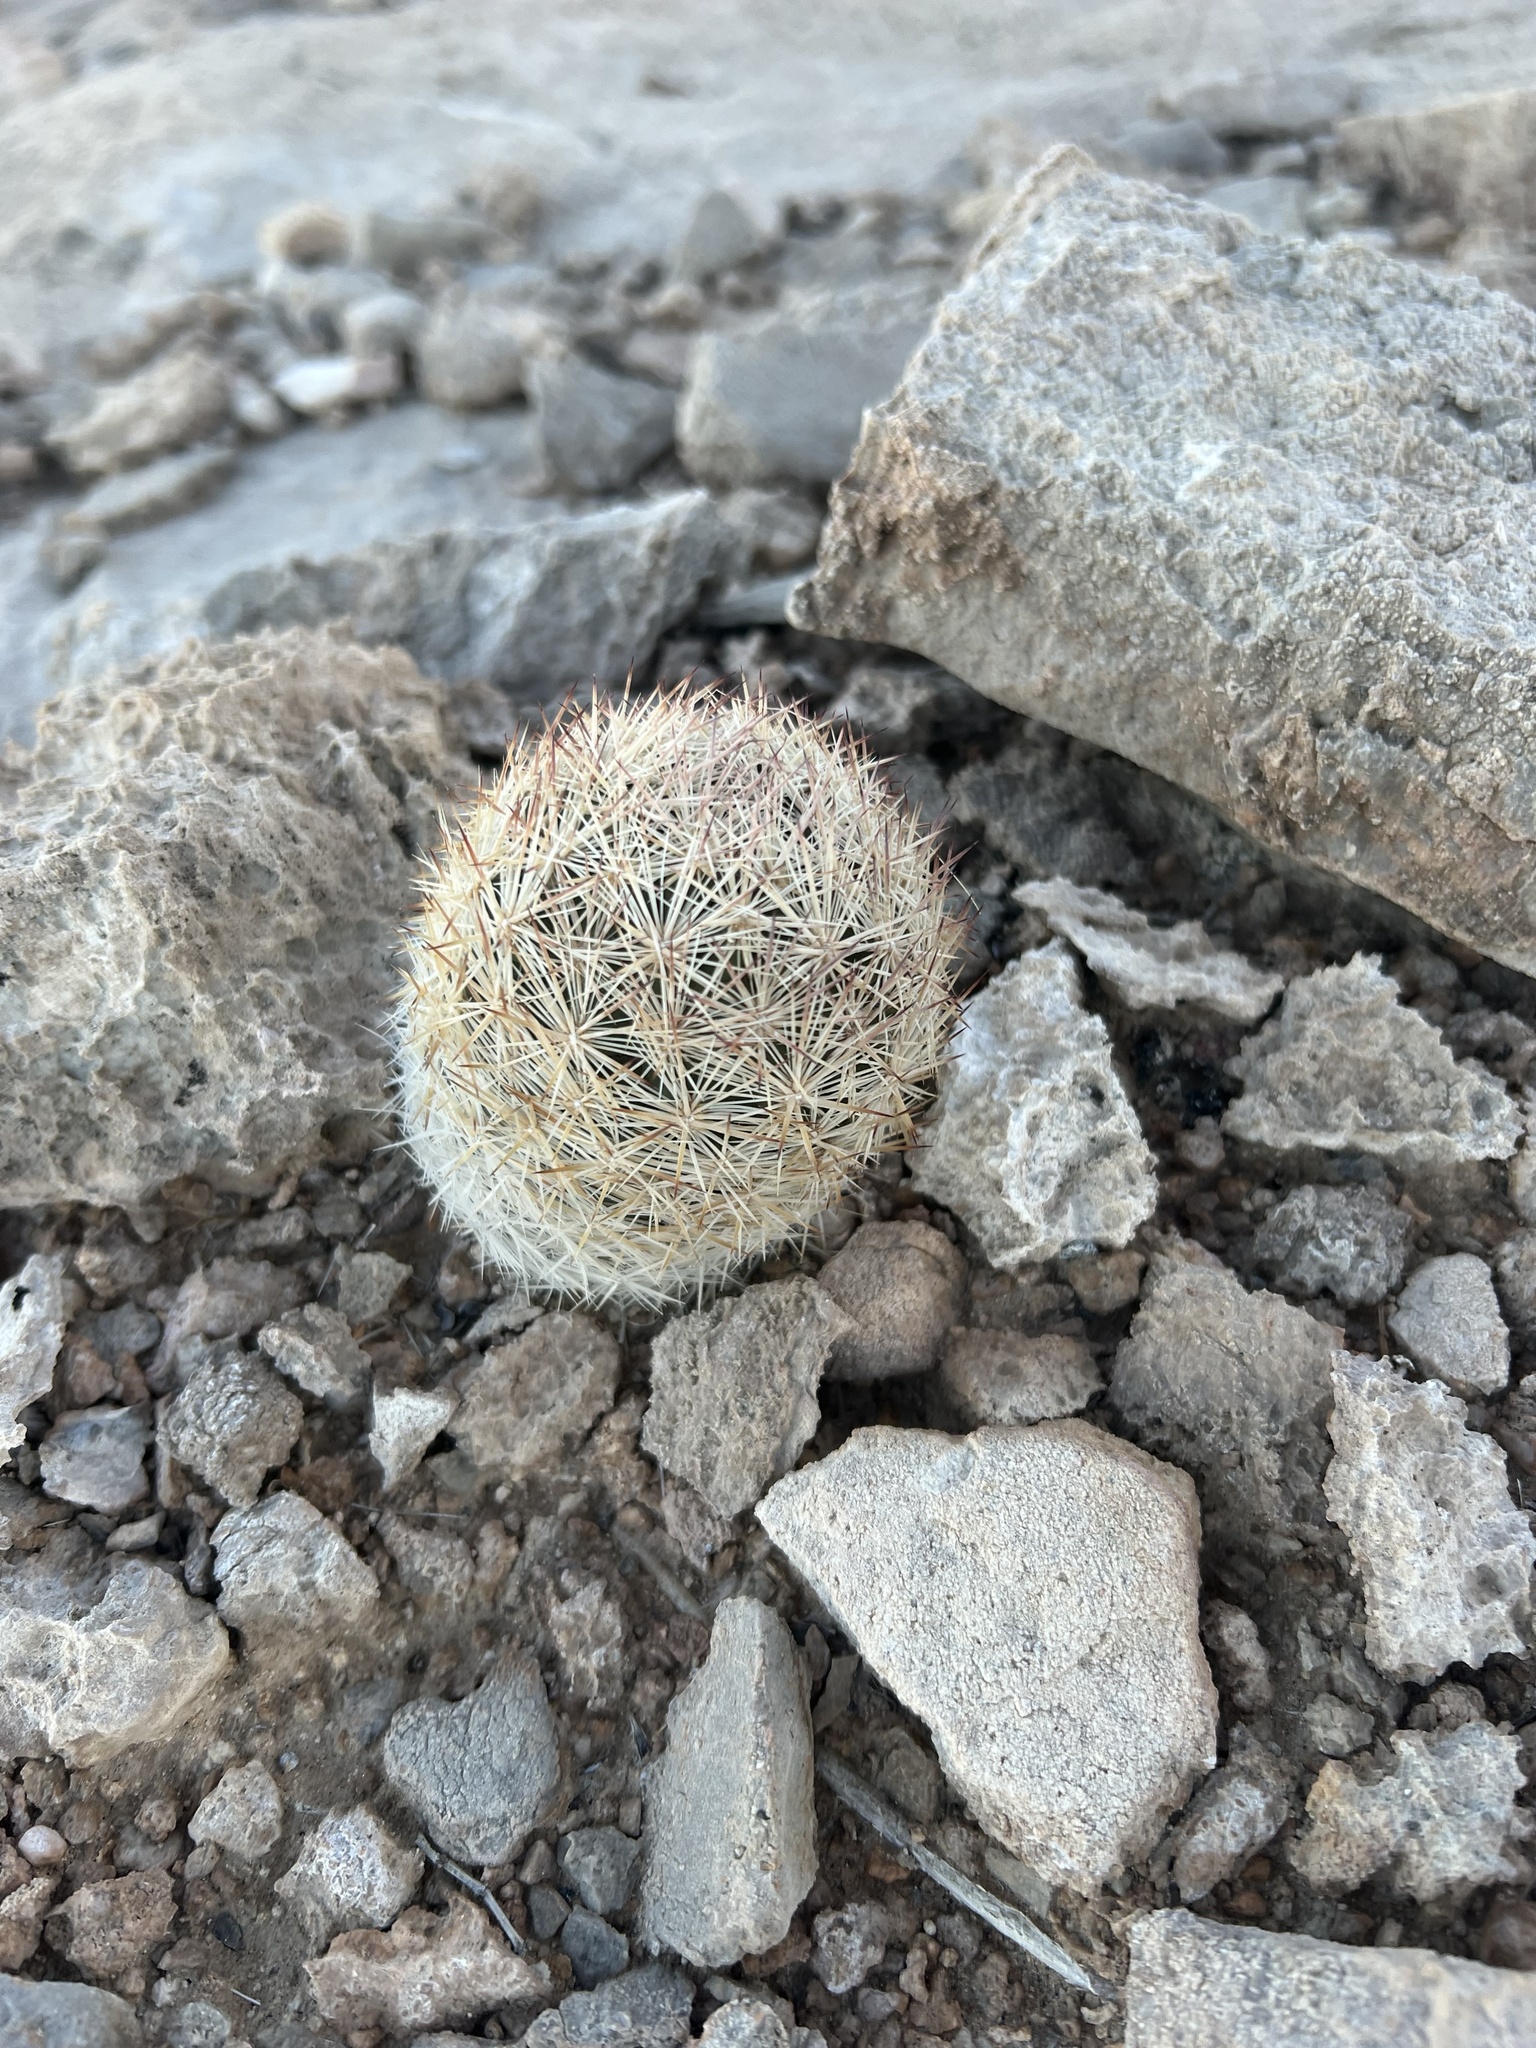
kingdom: Plantae
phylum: Tracheophyta
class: Magnoliopsida
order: Caryophyllales
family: Cactaceae
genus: Pelecyphora
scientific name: Pelecyphora dasyacantha
